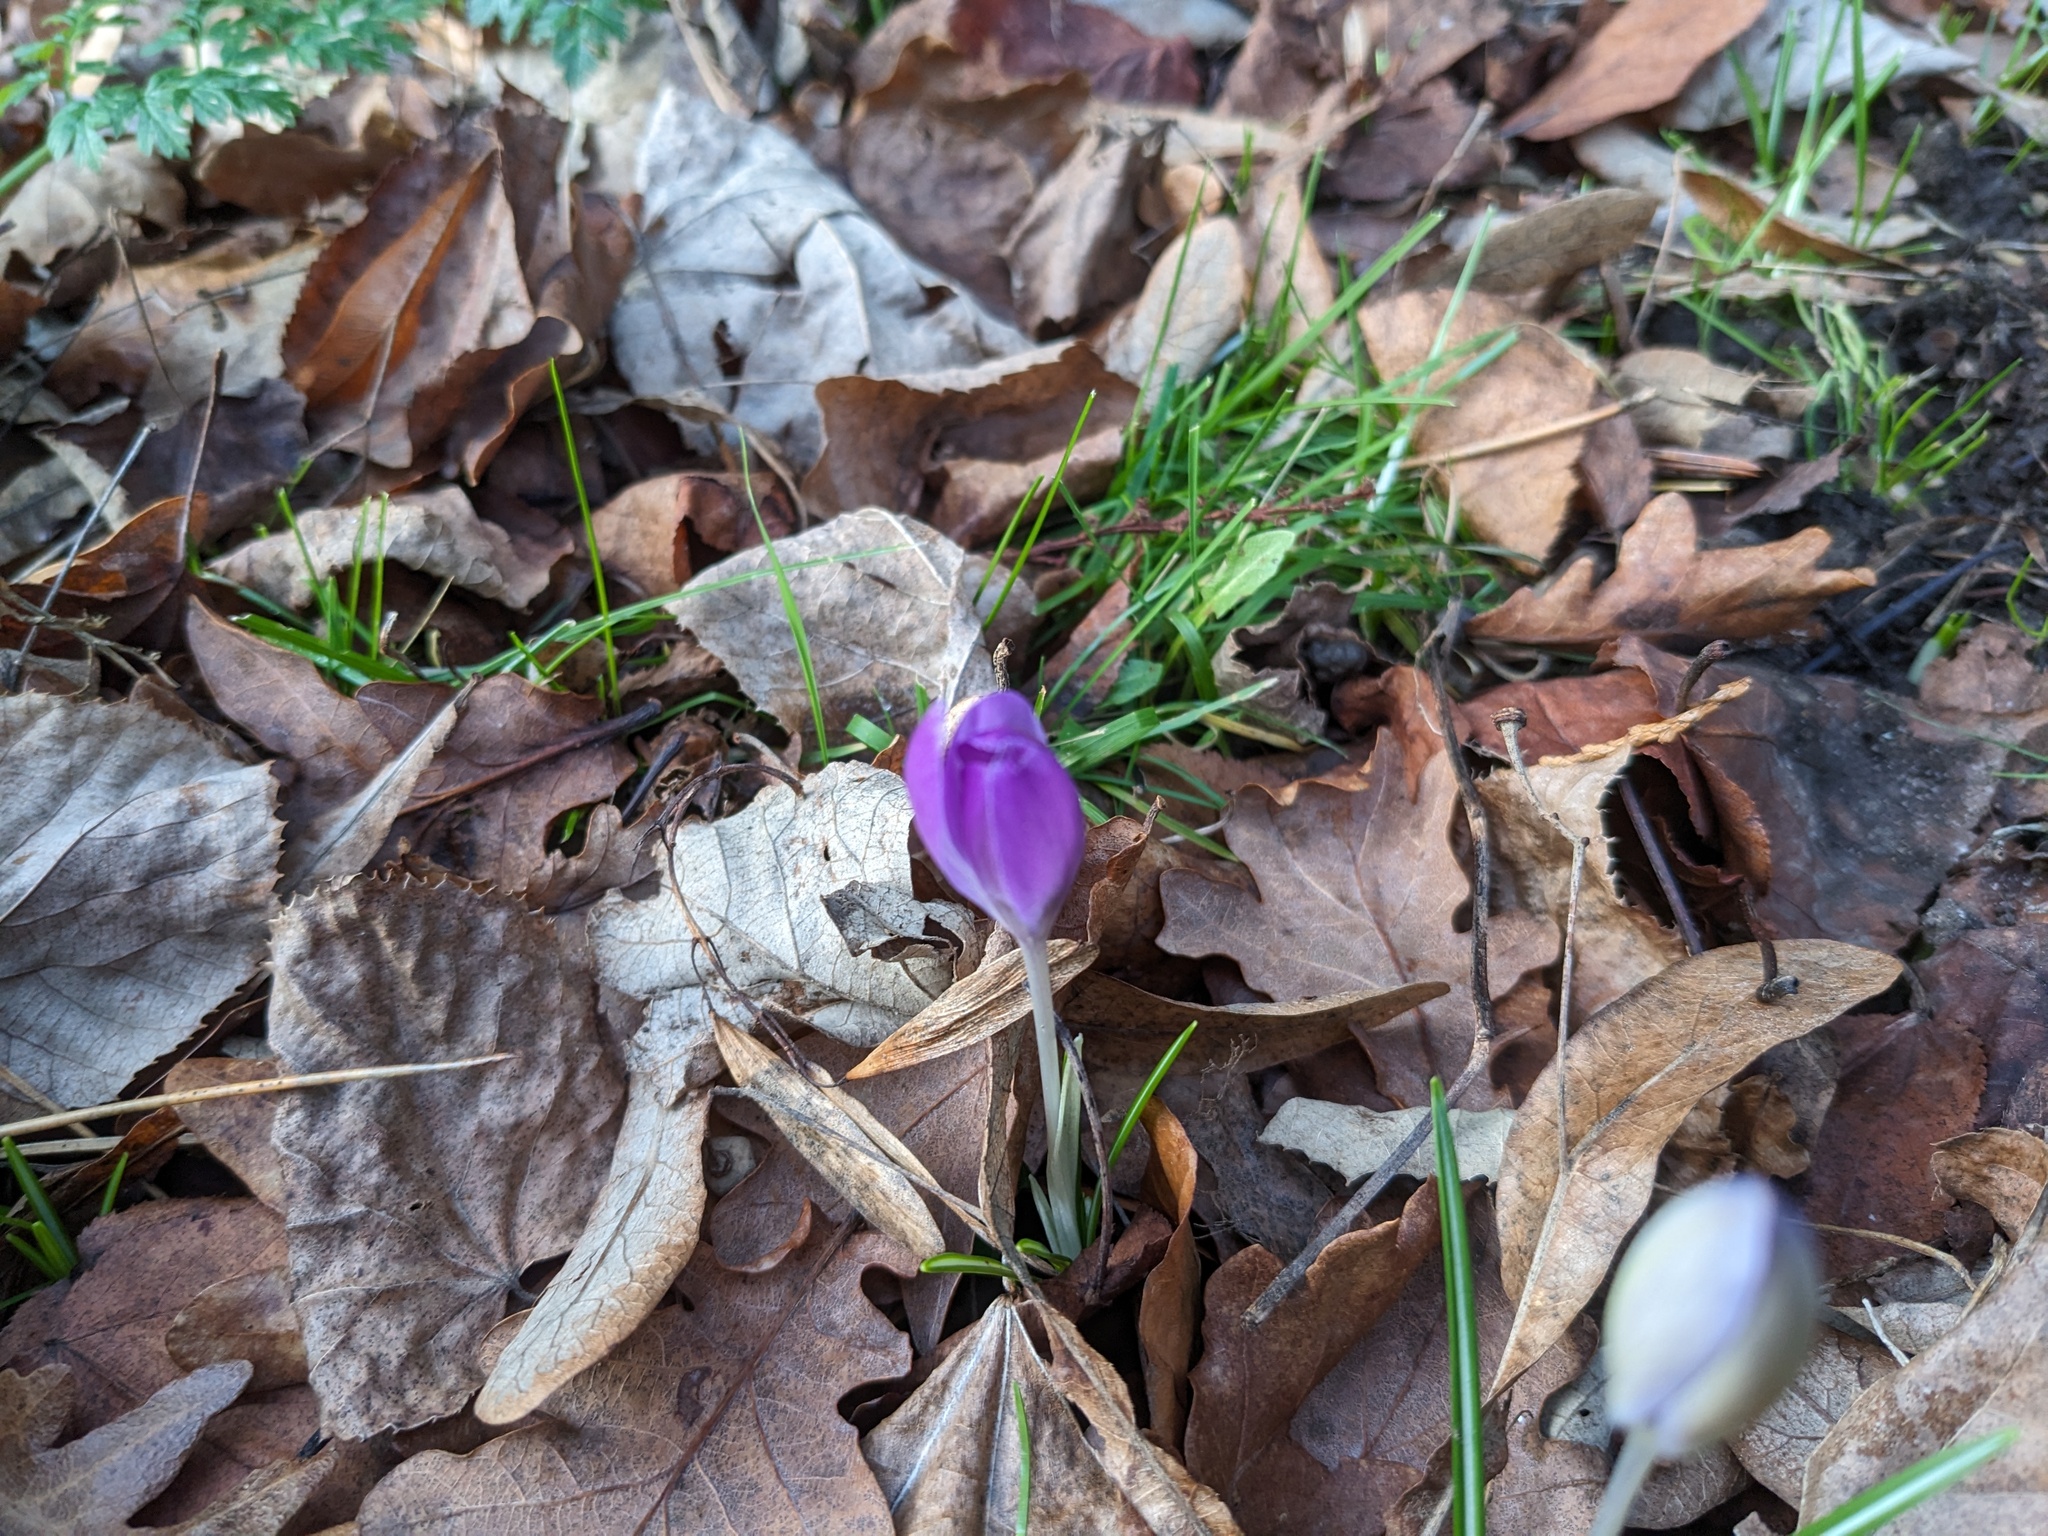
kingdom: Plantae
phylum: Tracheophyta
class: Liliopsida
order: Asparagales
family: Iridaceae
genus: Crocus
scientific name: Crocus tommasinianus
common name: Early crocus
